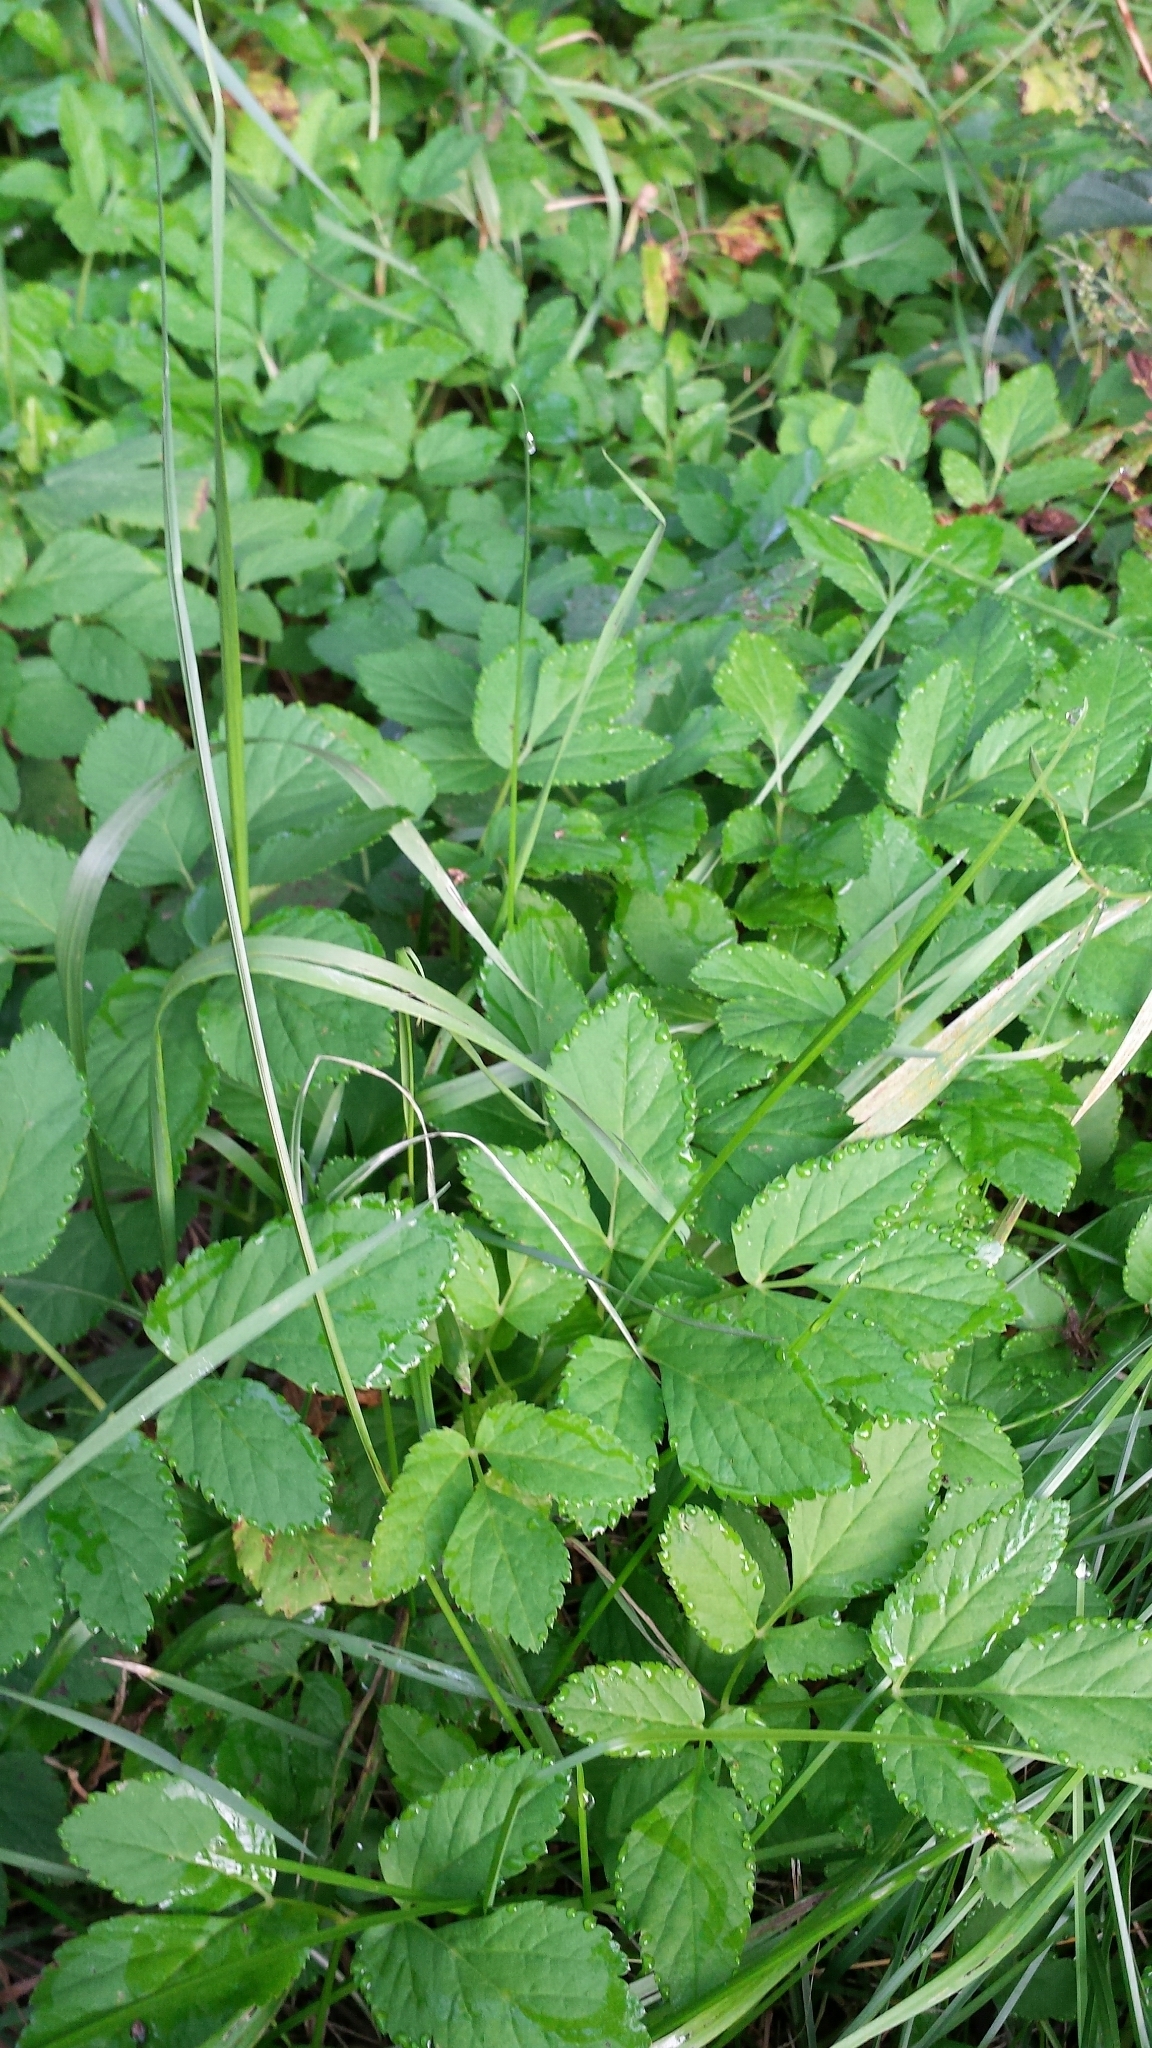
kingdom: Plantae
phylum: Tracheophyta
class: Magnoliopsida
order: Apiales
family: Apiaceae
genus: Aegopodium
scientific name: Aegopodium podagraria
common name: Ground-elder
